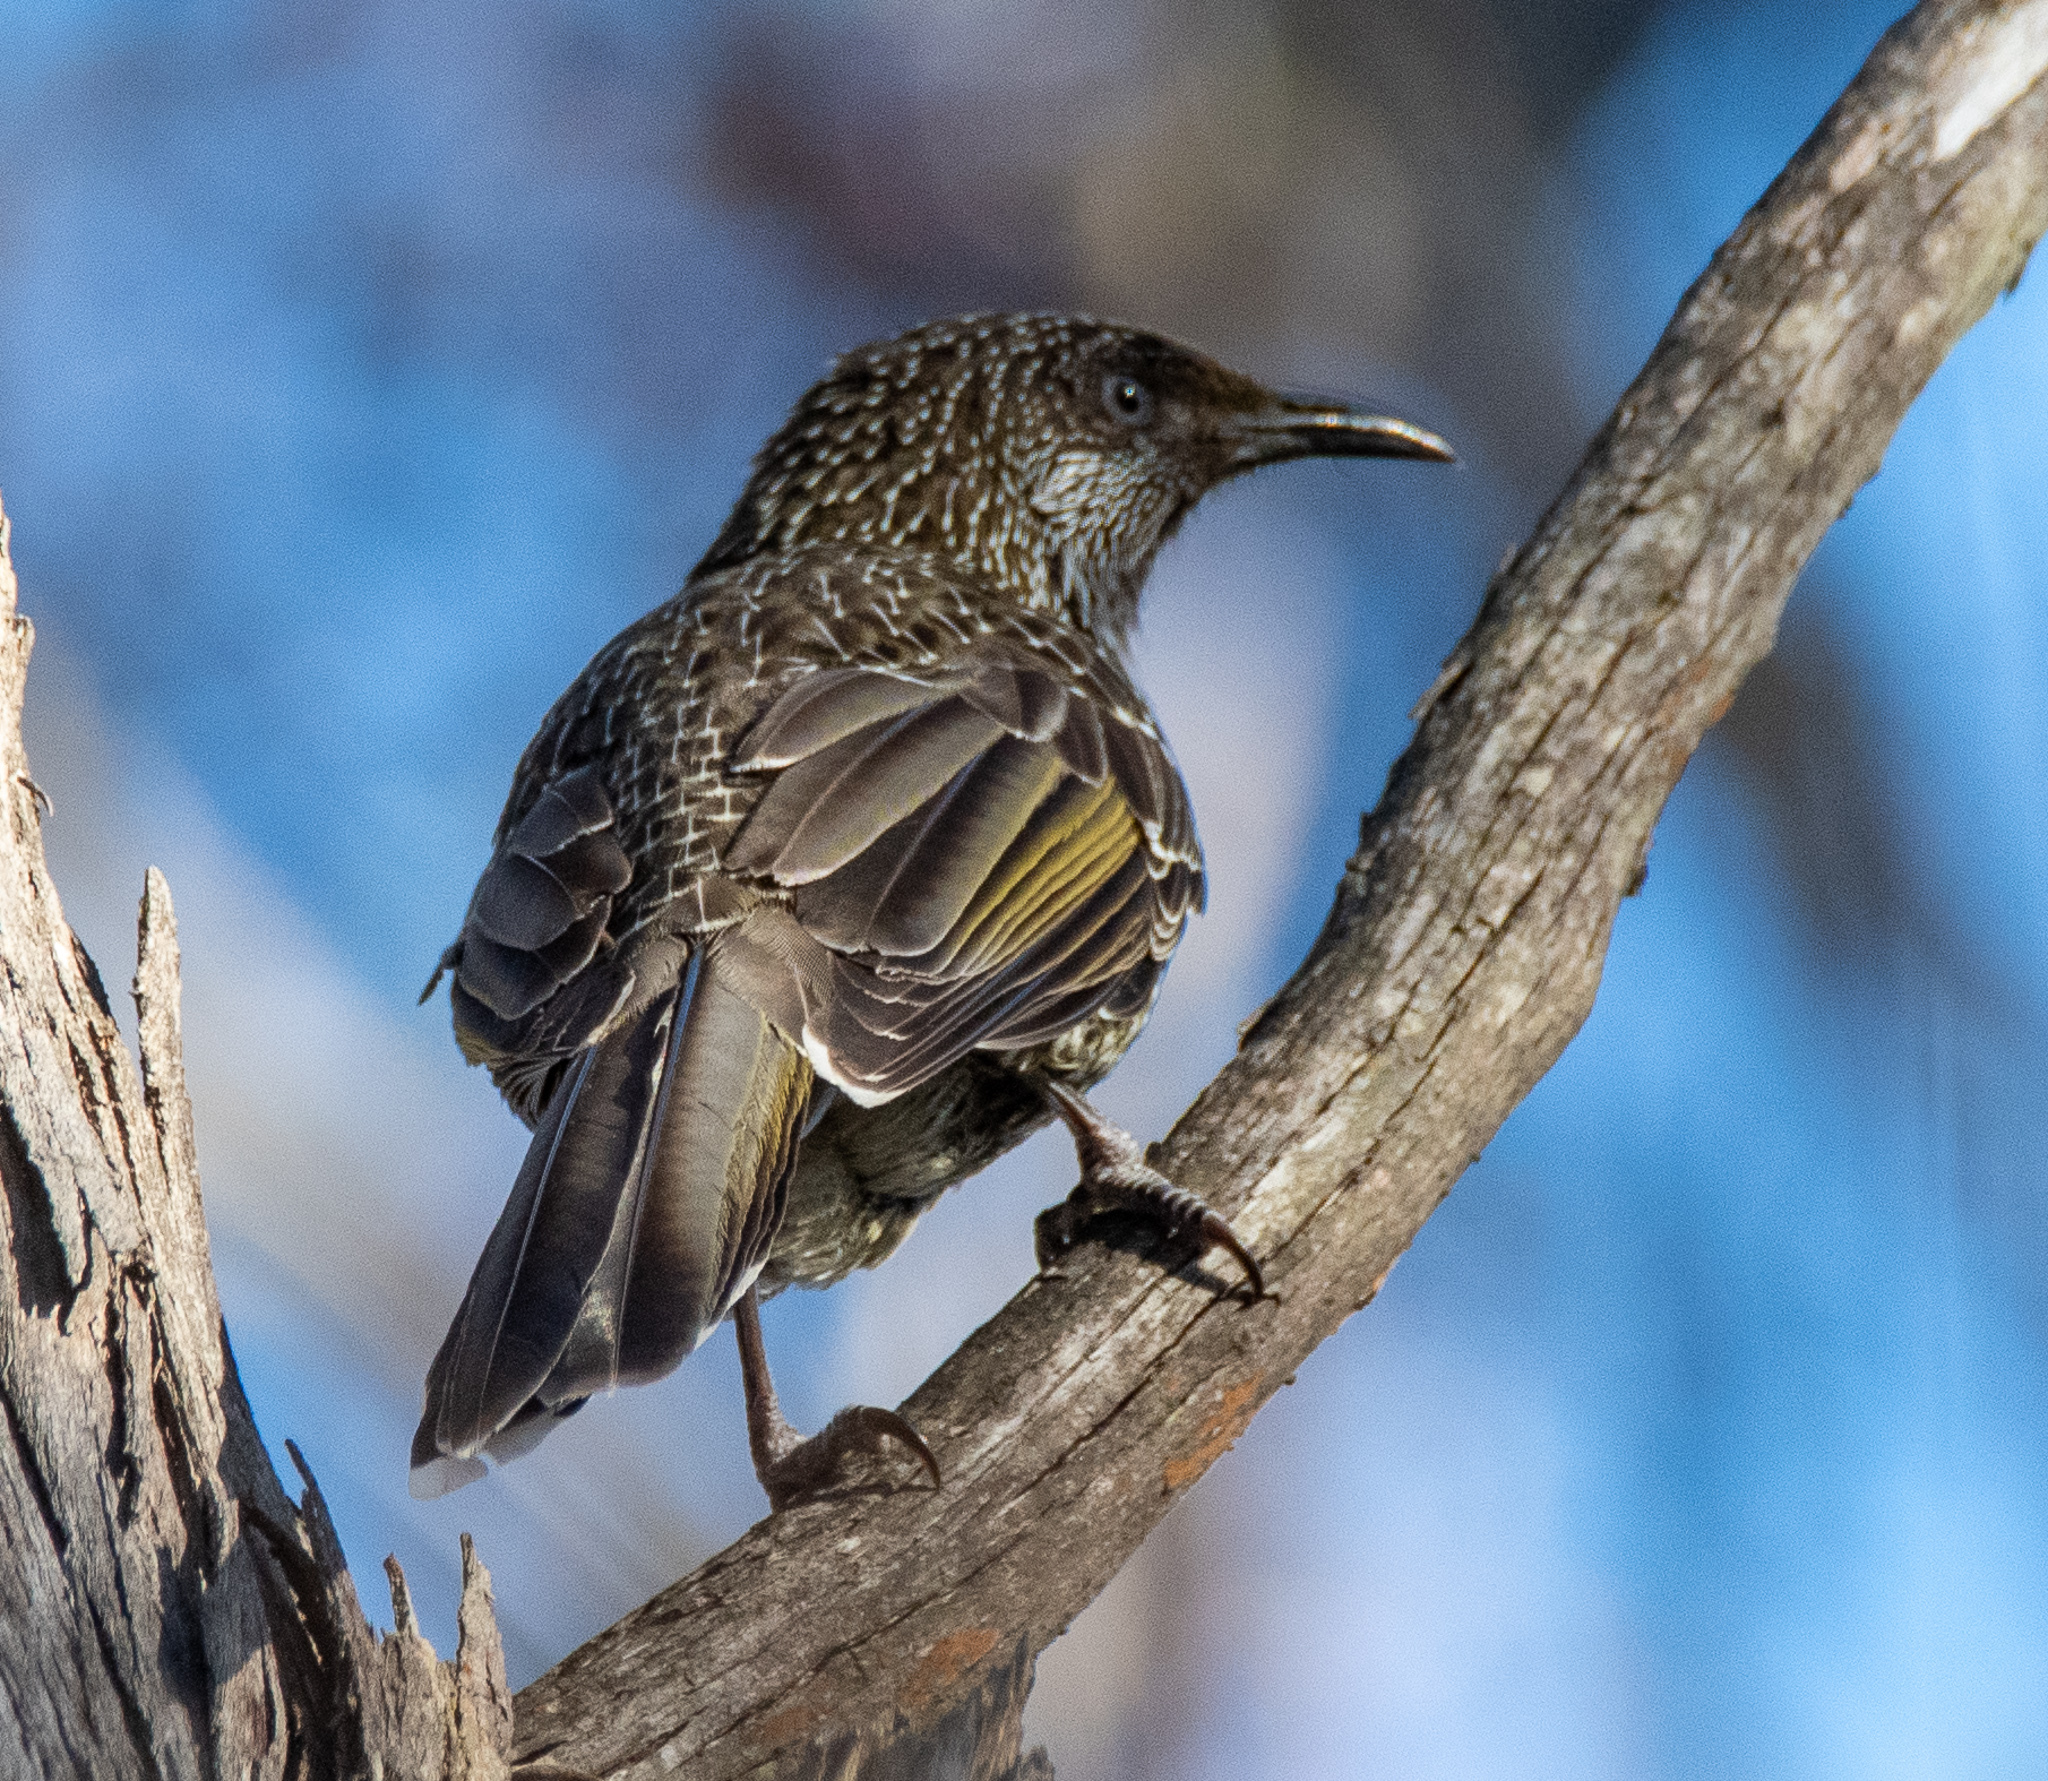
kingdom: Animalia
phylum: Chordata
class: Aves
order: Passeriformes
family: Meliphagidae
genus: Anthochaera
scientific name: Anthochaera chrysoptera
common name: Little wattlebird
